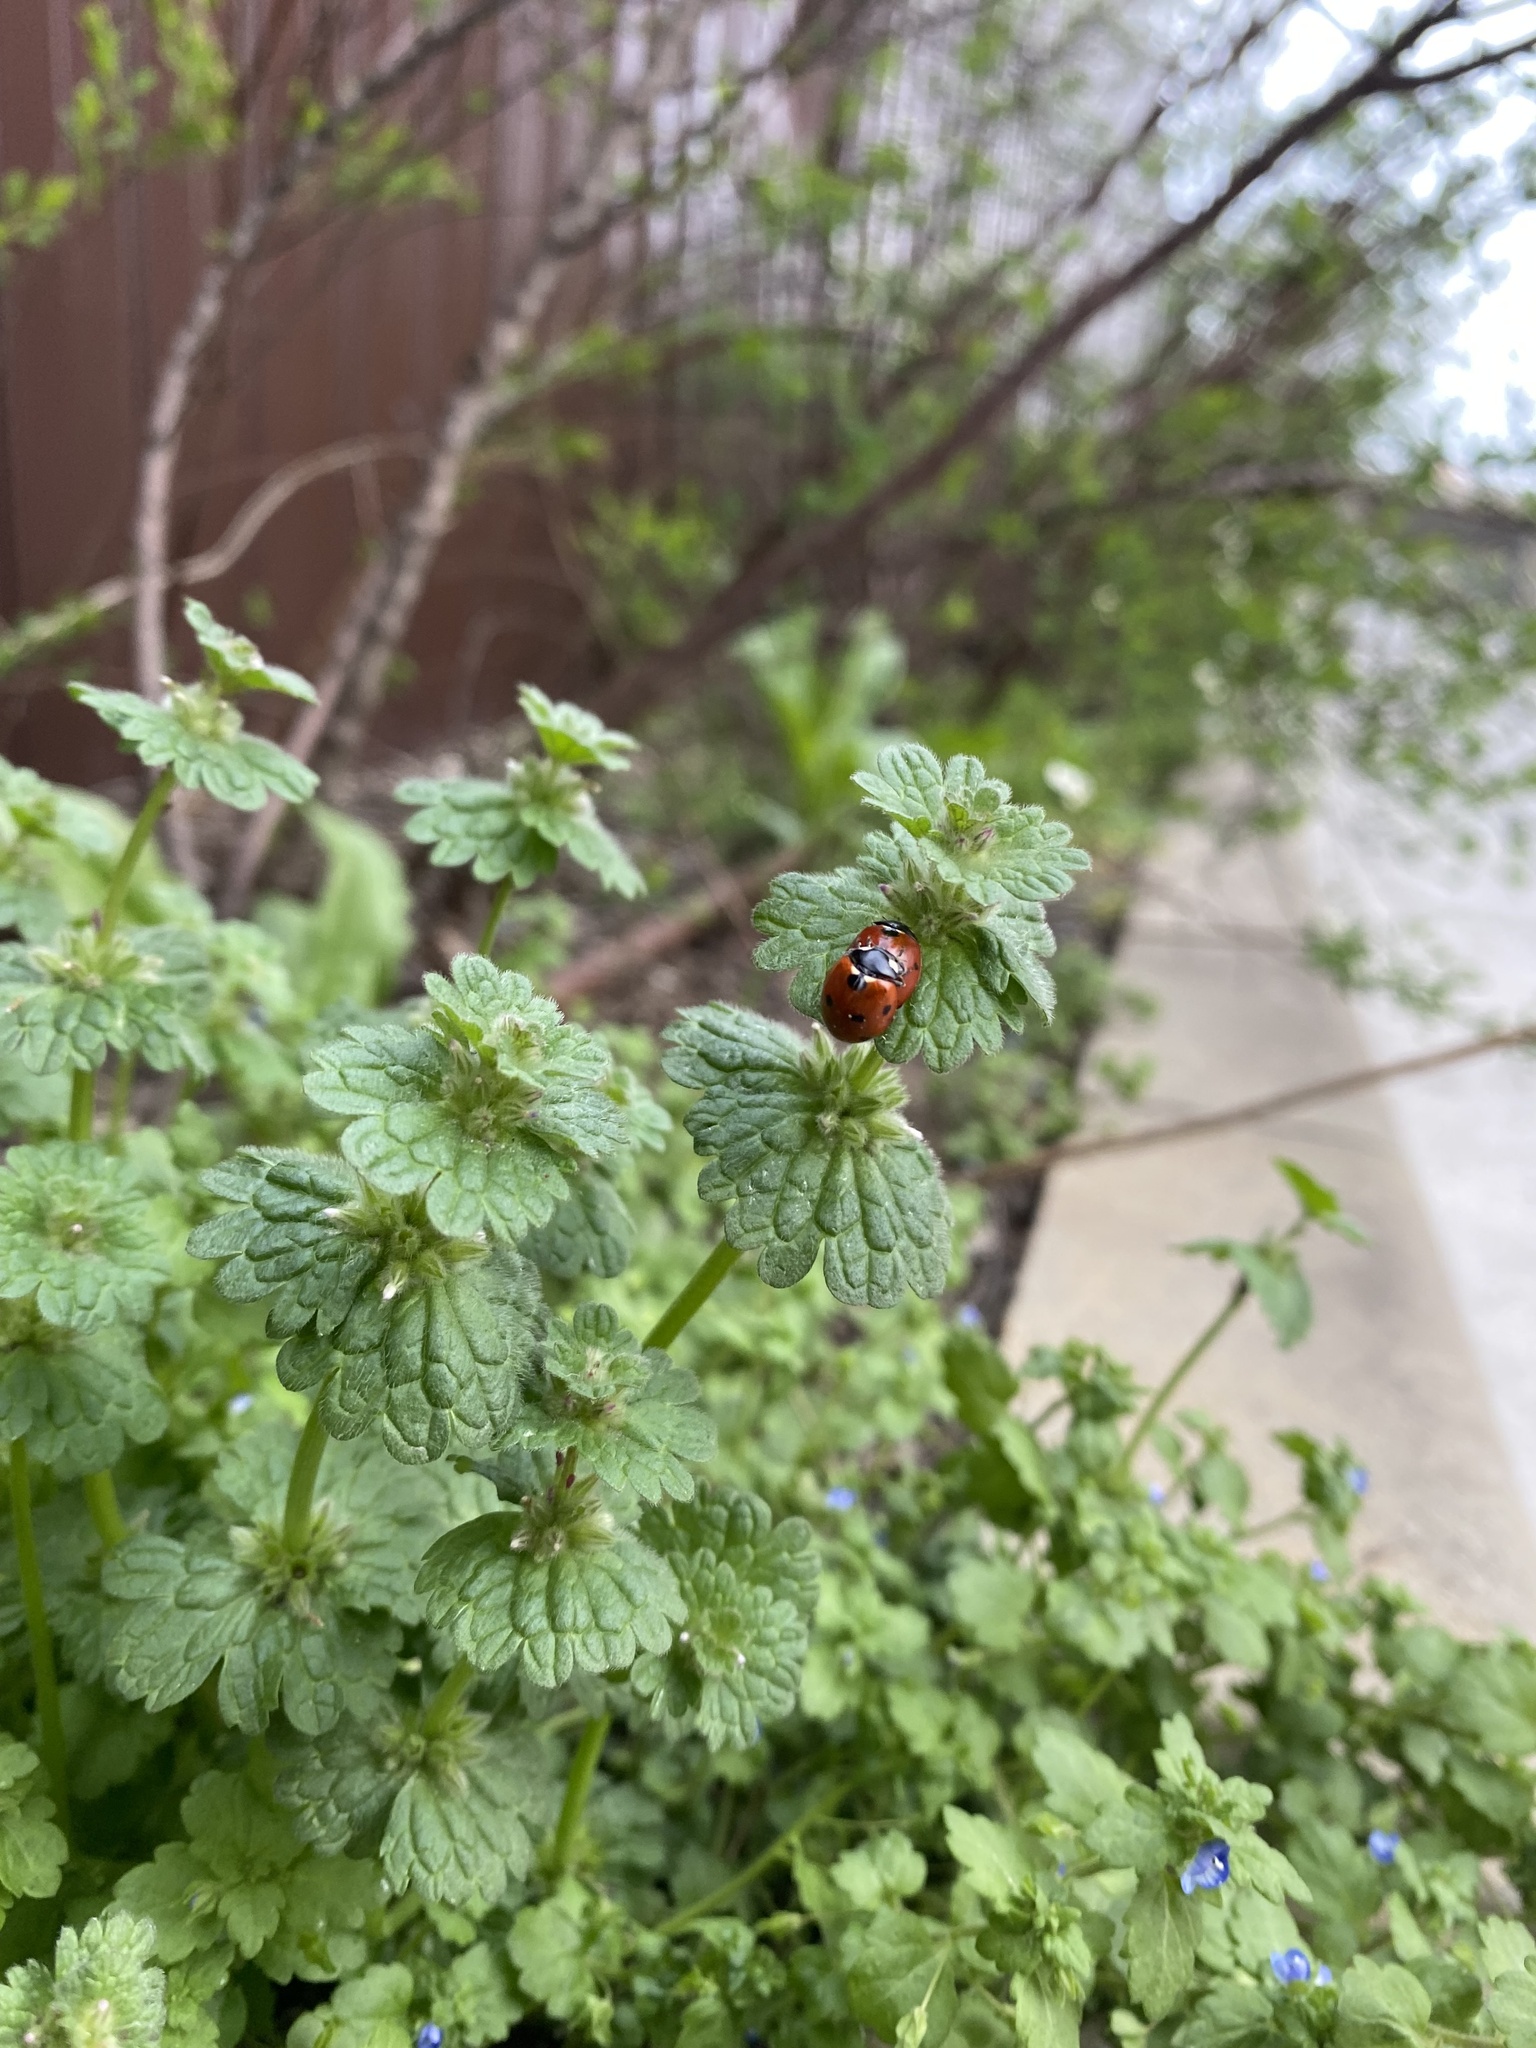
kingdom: Animalia
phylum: Arthropoda
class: Insecta
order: Coleoptera
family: Coccinellidae
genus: Coccinella
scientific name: Coccinella septempunctata
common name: Sevenspotted lady beetle
